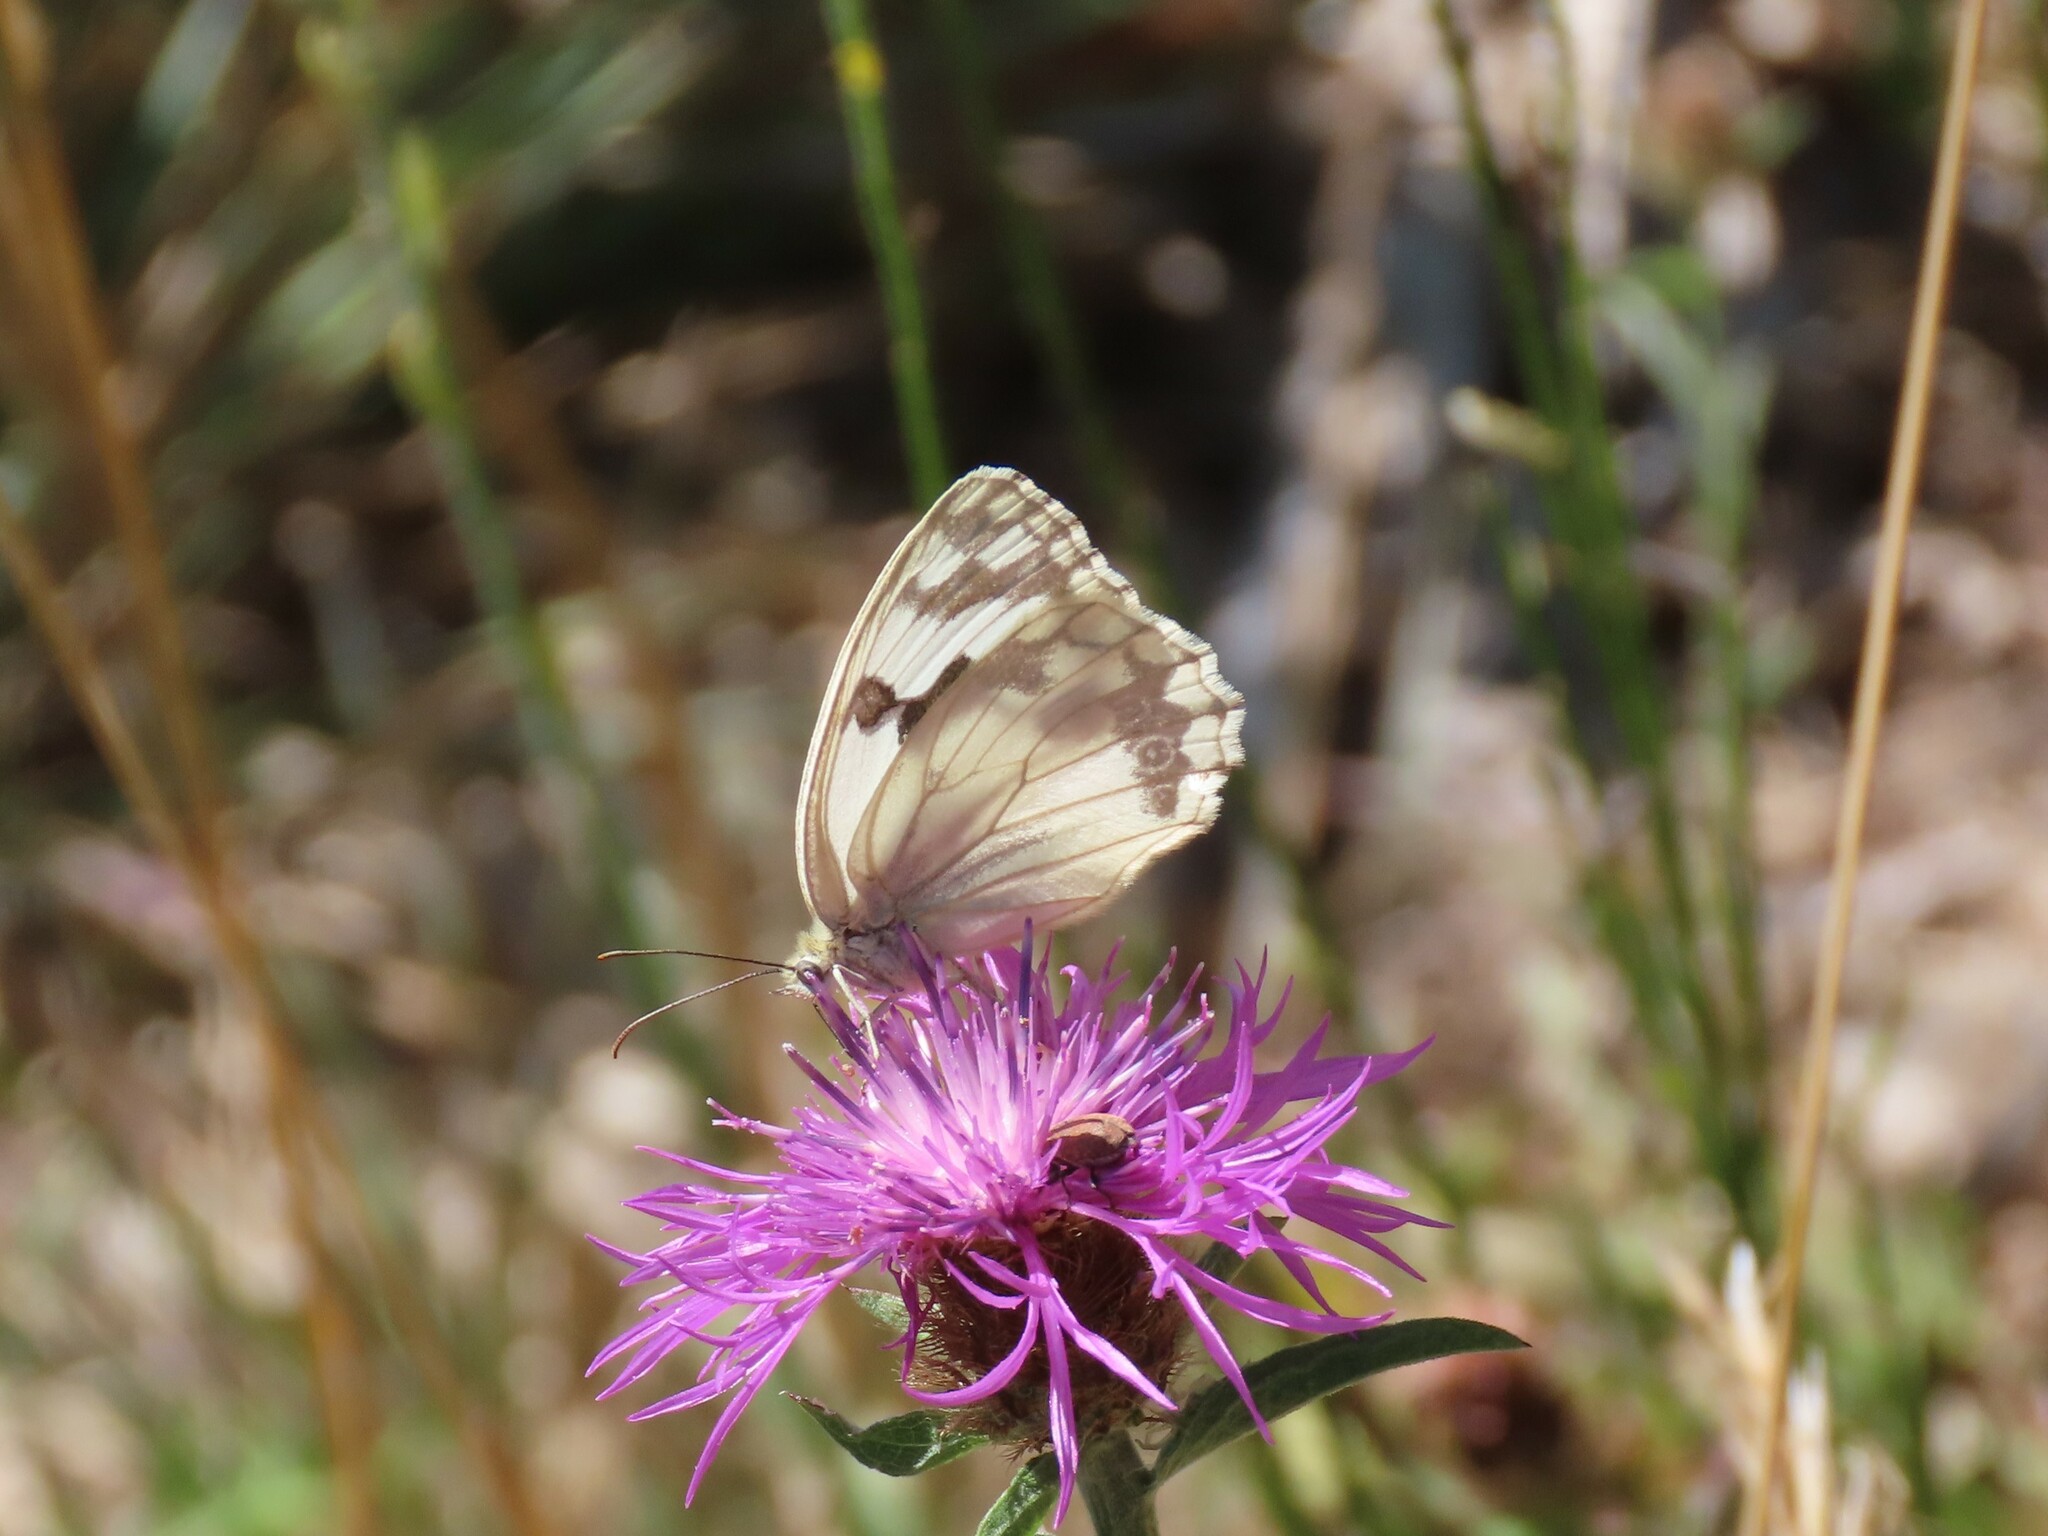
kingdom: Animalia
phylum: Arthropoda
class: Insecta
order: Lepidoptera
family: Nymphalidae
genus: Melanargia
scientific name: Melanargia lachesis
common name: Iberian marbled white
